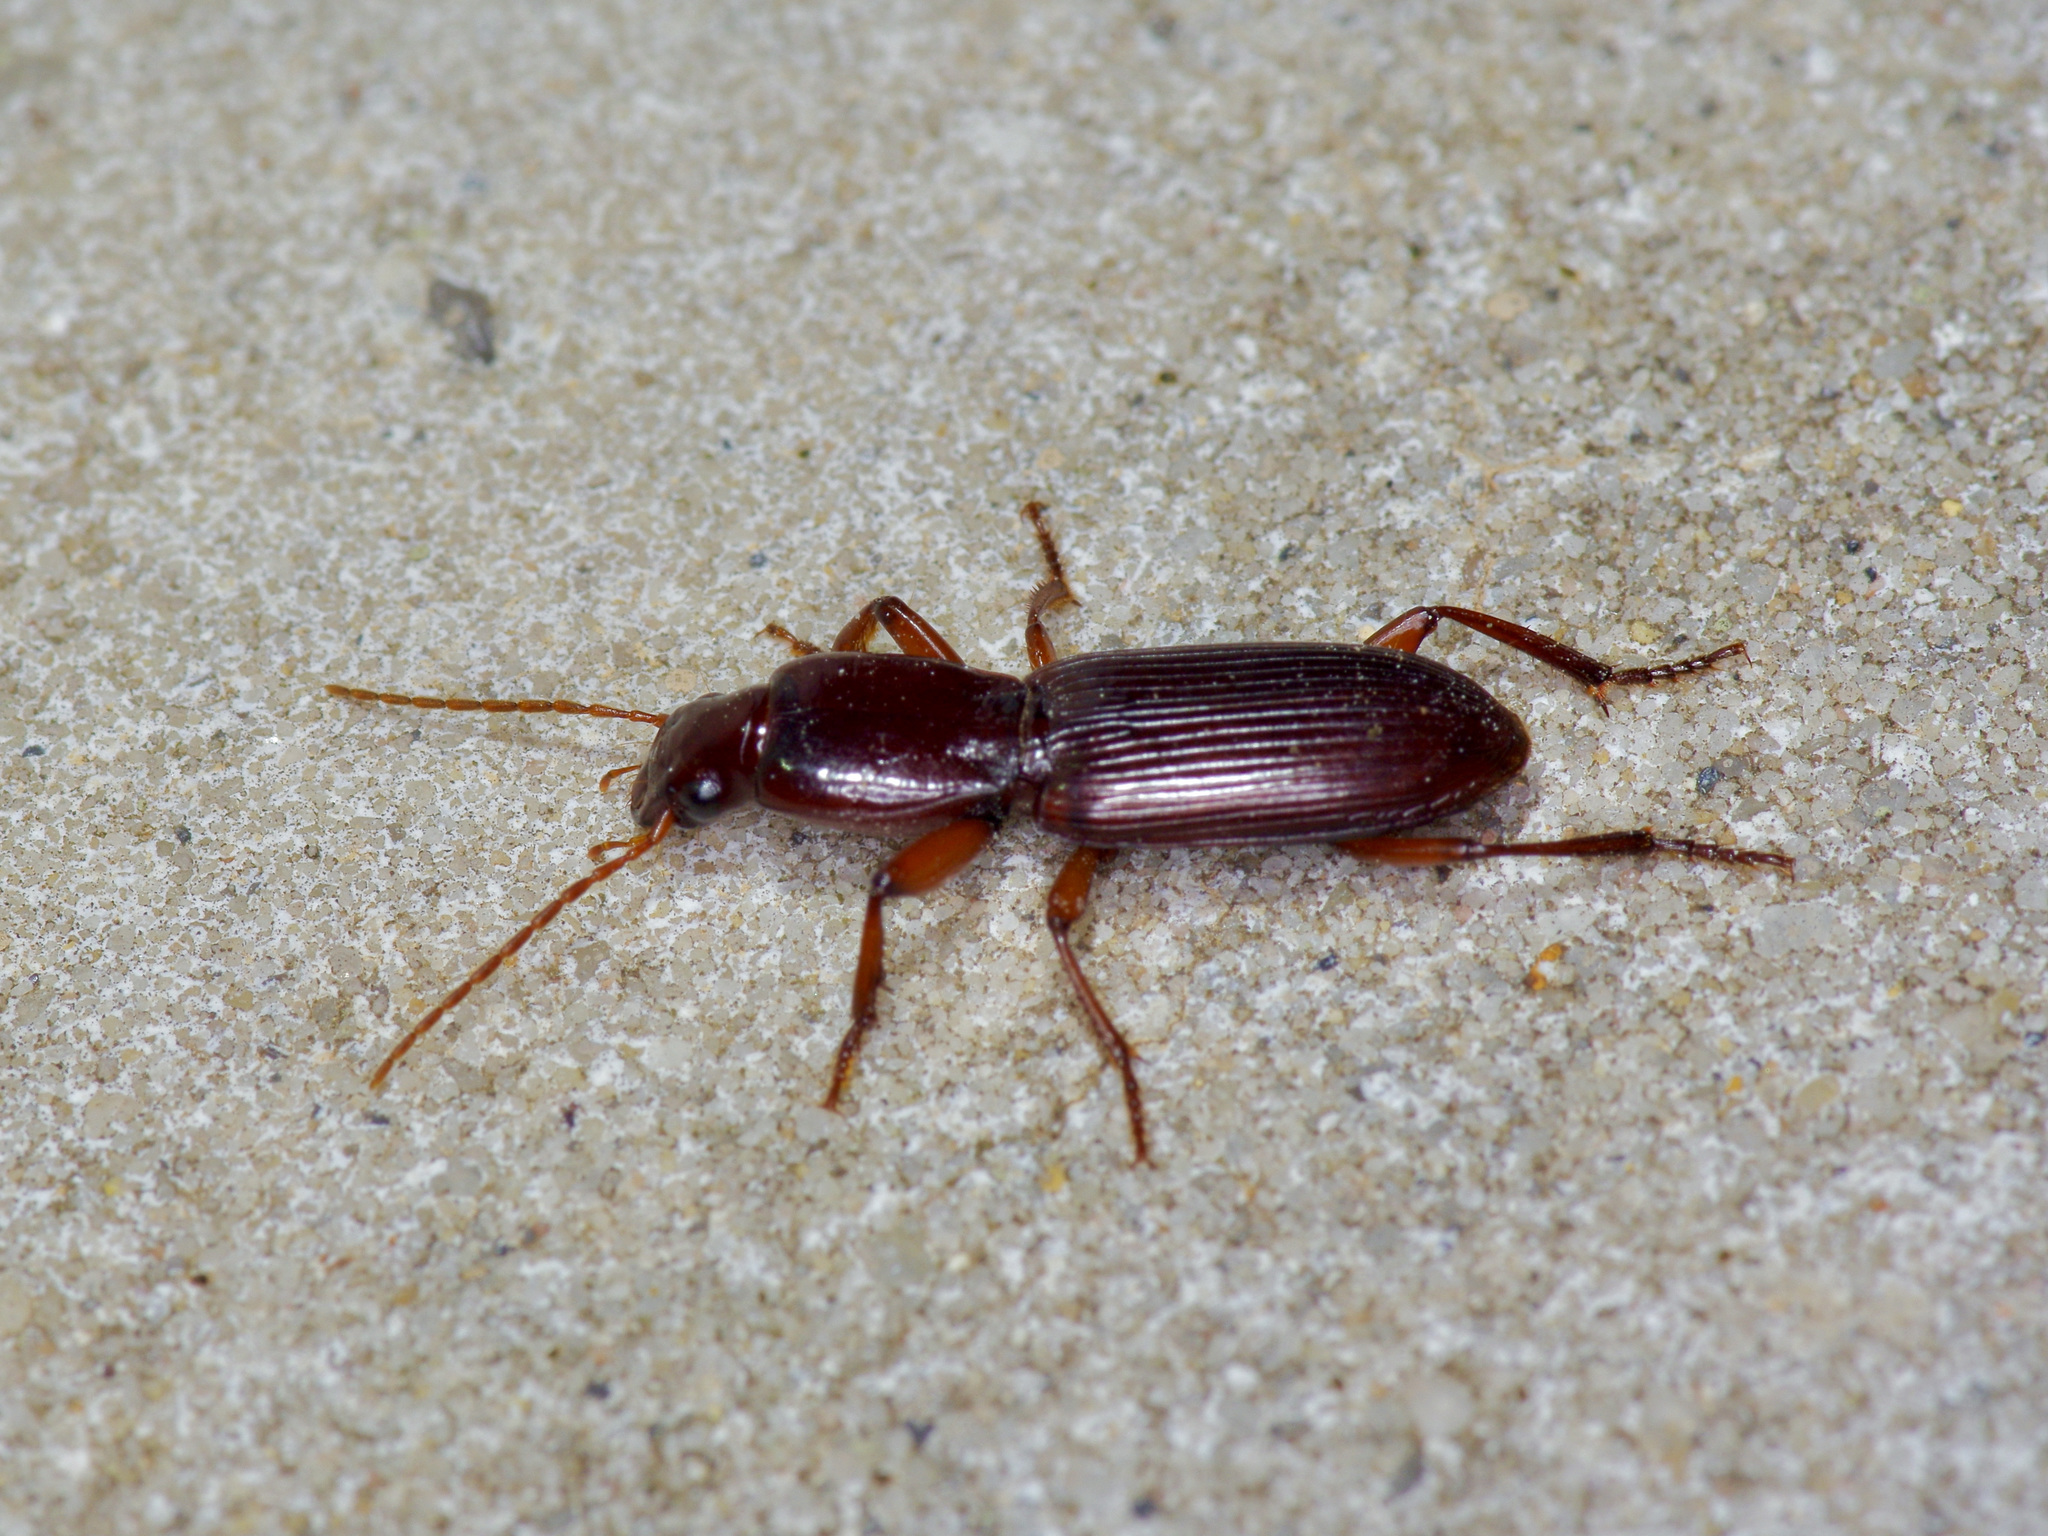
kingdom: Animalia
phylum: Arthropoda
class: Insecta
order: Coleoptera
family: Carabidae
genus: Stenomorphus
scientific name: Stenomorphus californicus
